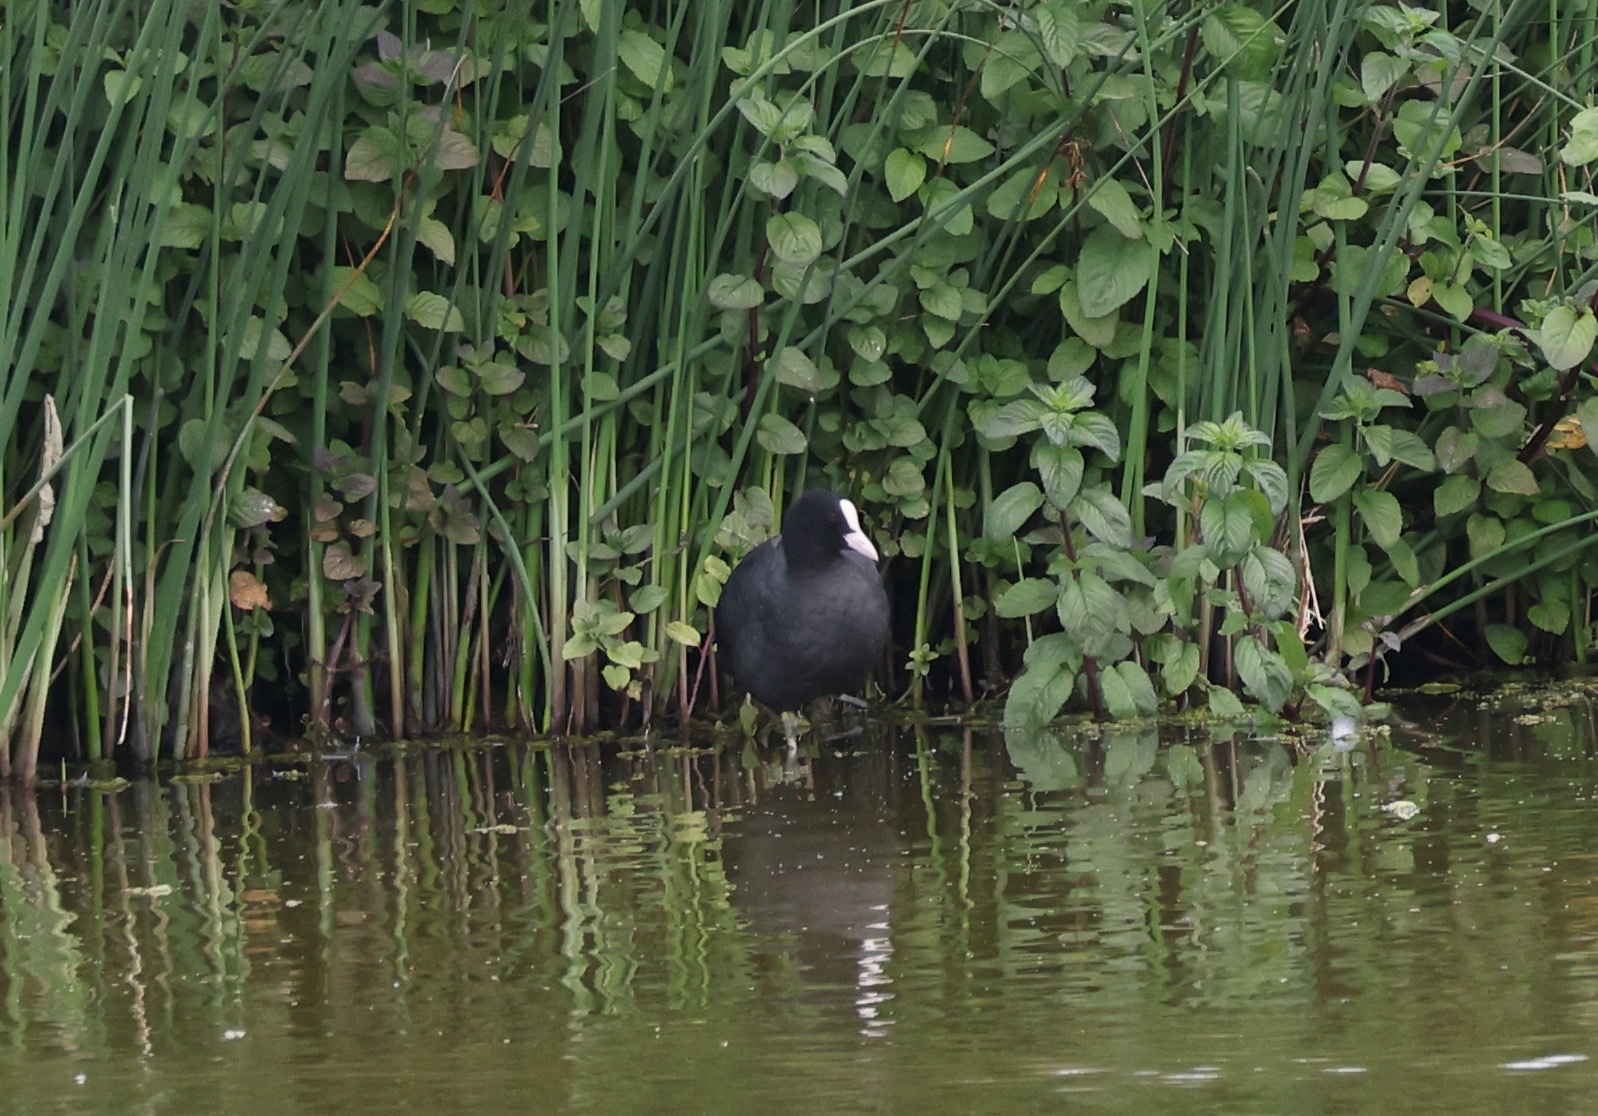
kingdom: Animalia
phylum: Chordata
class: Aves
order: Gruiformes
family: Rallidae
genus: Fulica
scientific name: Fulica atra
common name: Eurasian coot
